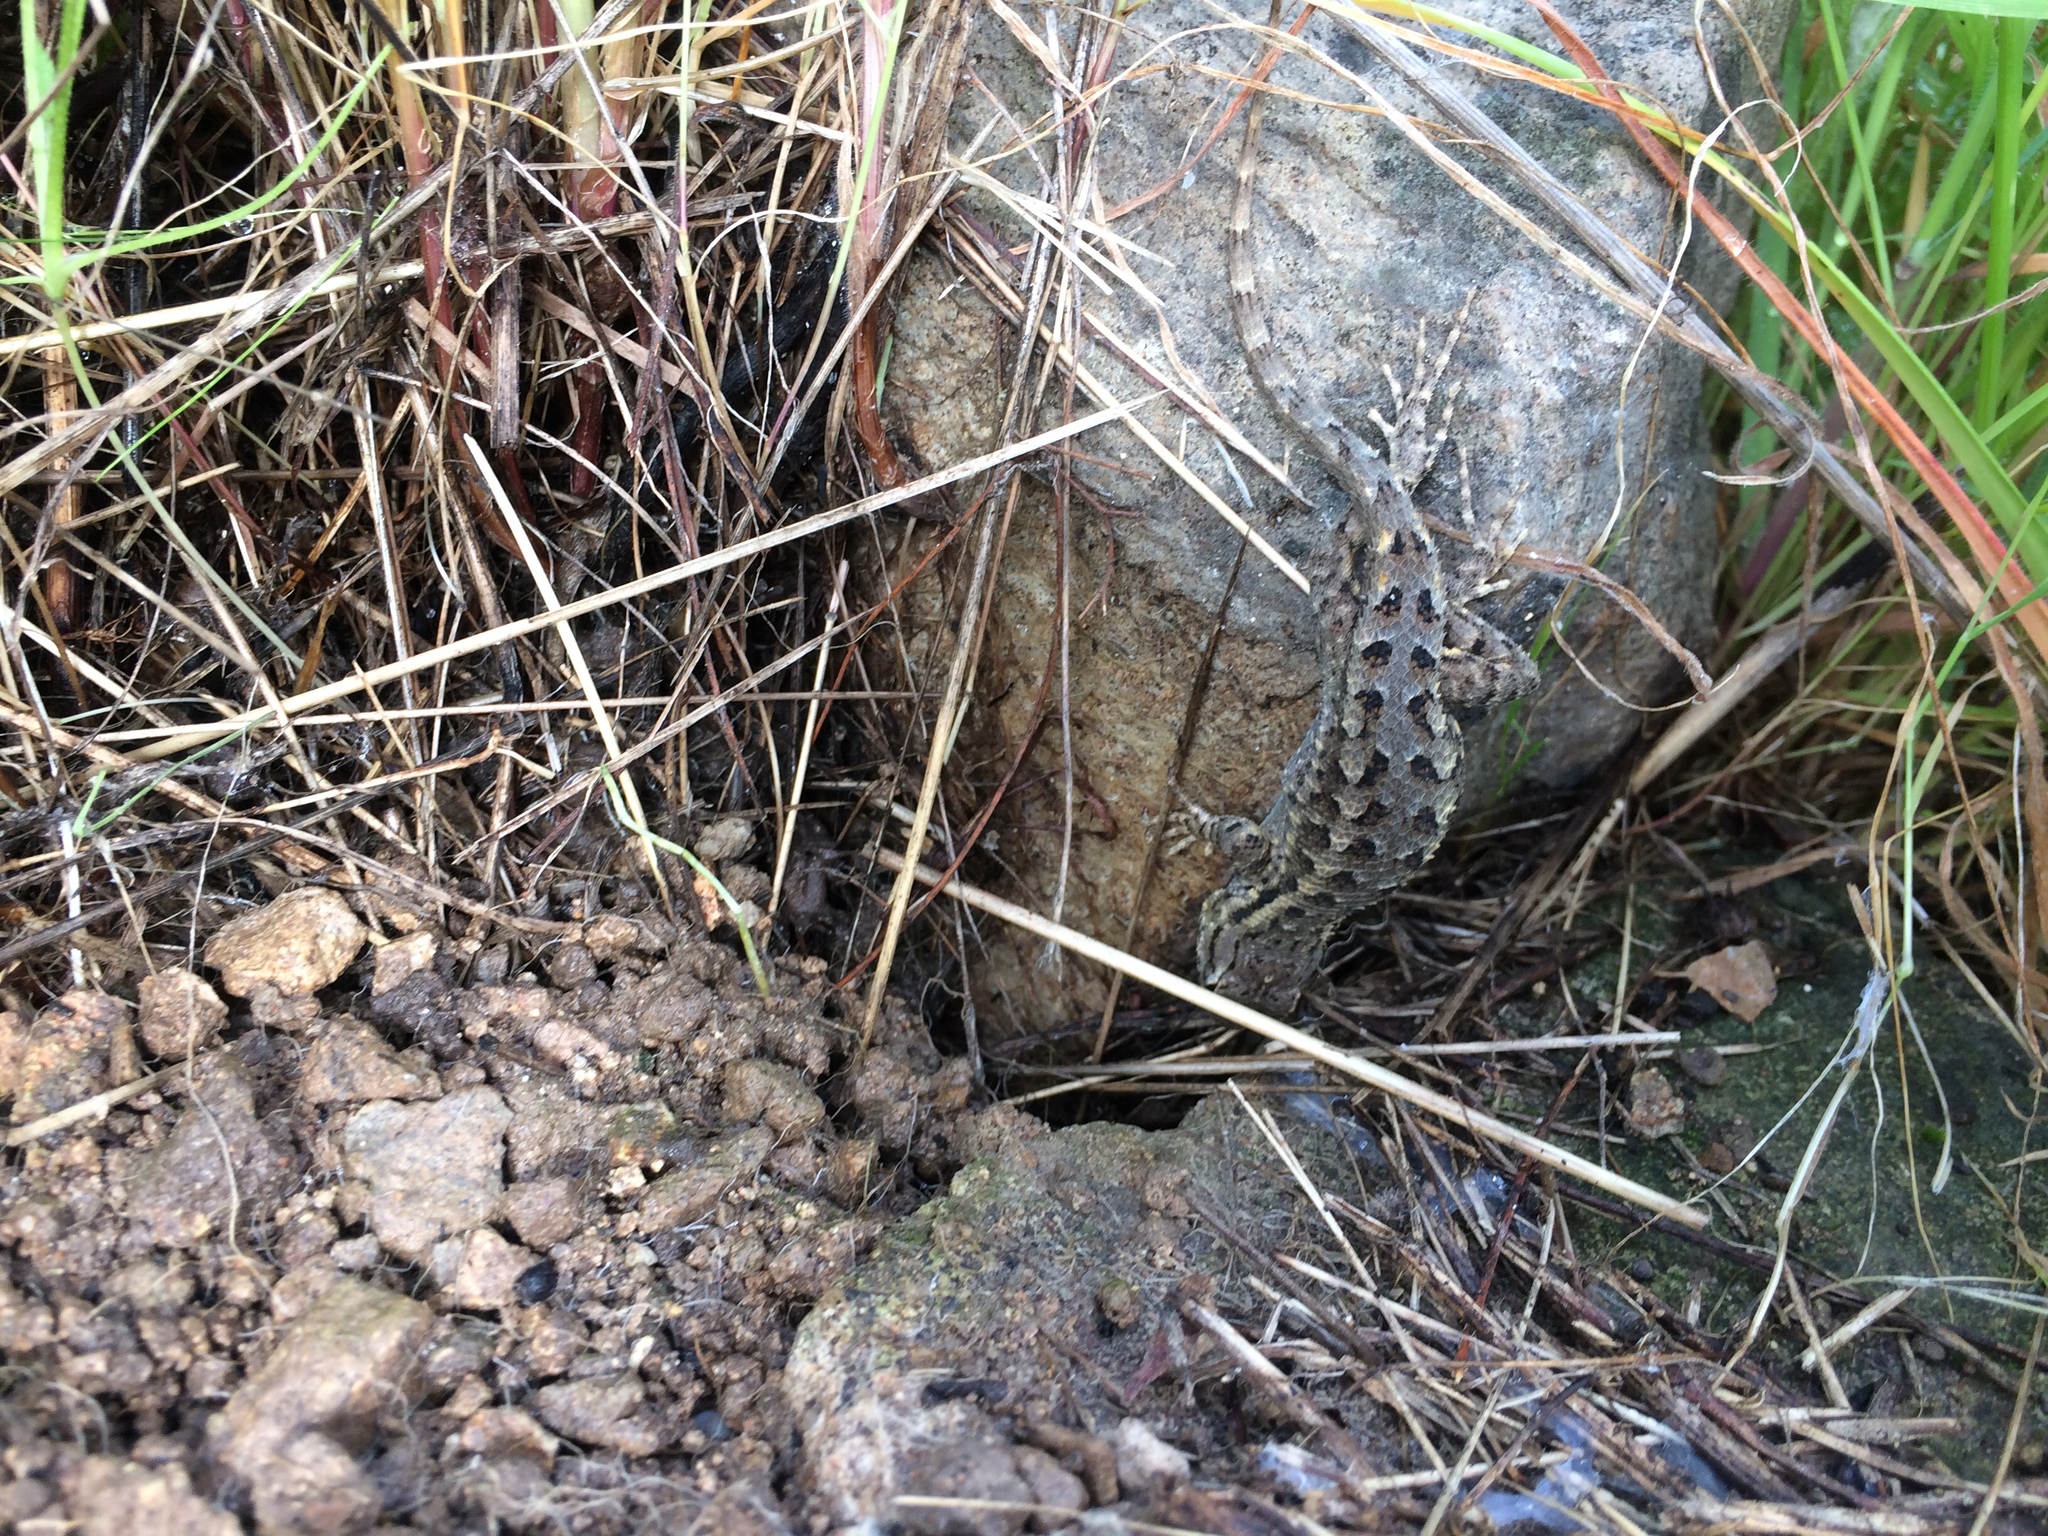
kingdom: Animalia
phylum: Chordata
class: Squamata
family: Phrynosomatidae
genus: Sceloporus
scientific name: Sceloporus occidentalis
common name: Western fence lizard
